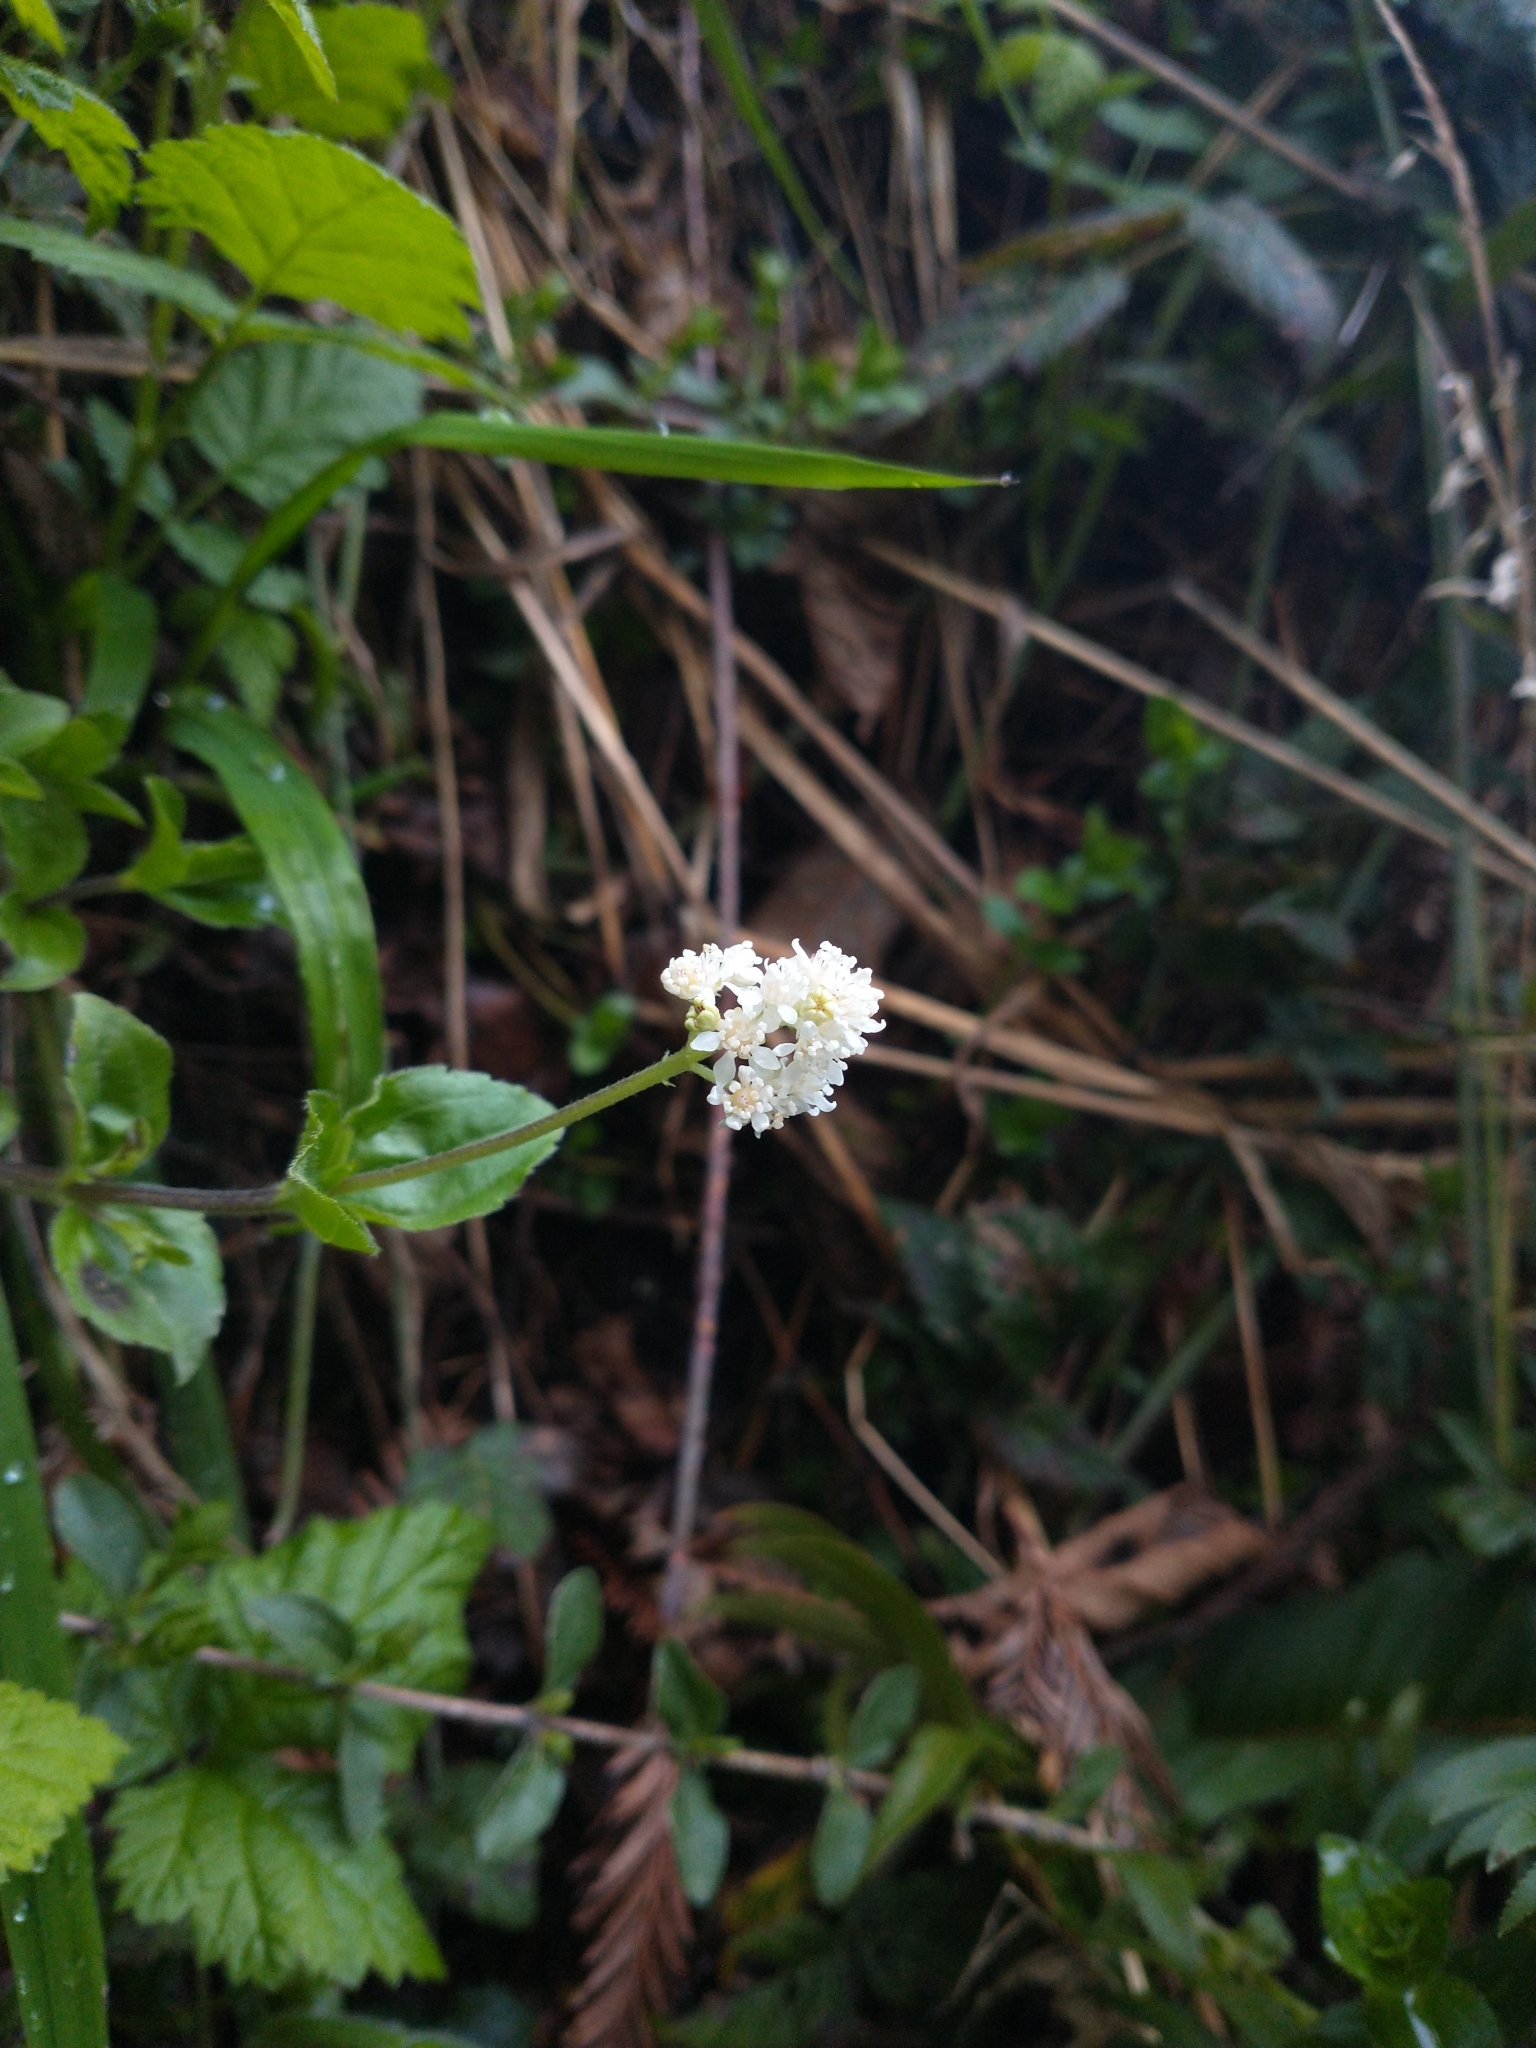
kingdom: Plantae
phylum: Tracheophyta
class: Magnoliopsida
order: Cornales
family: Hydrangeaceae
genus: Whipplea
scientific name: Whipplea modesta
